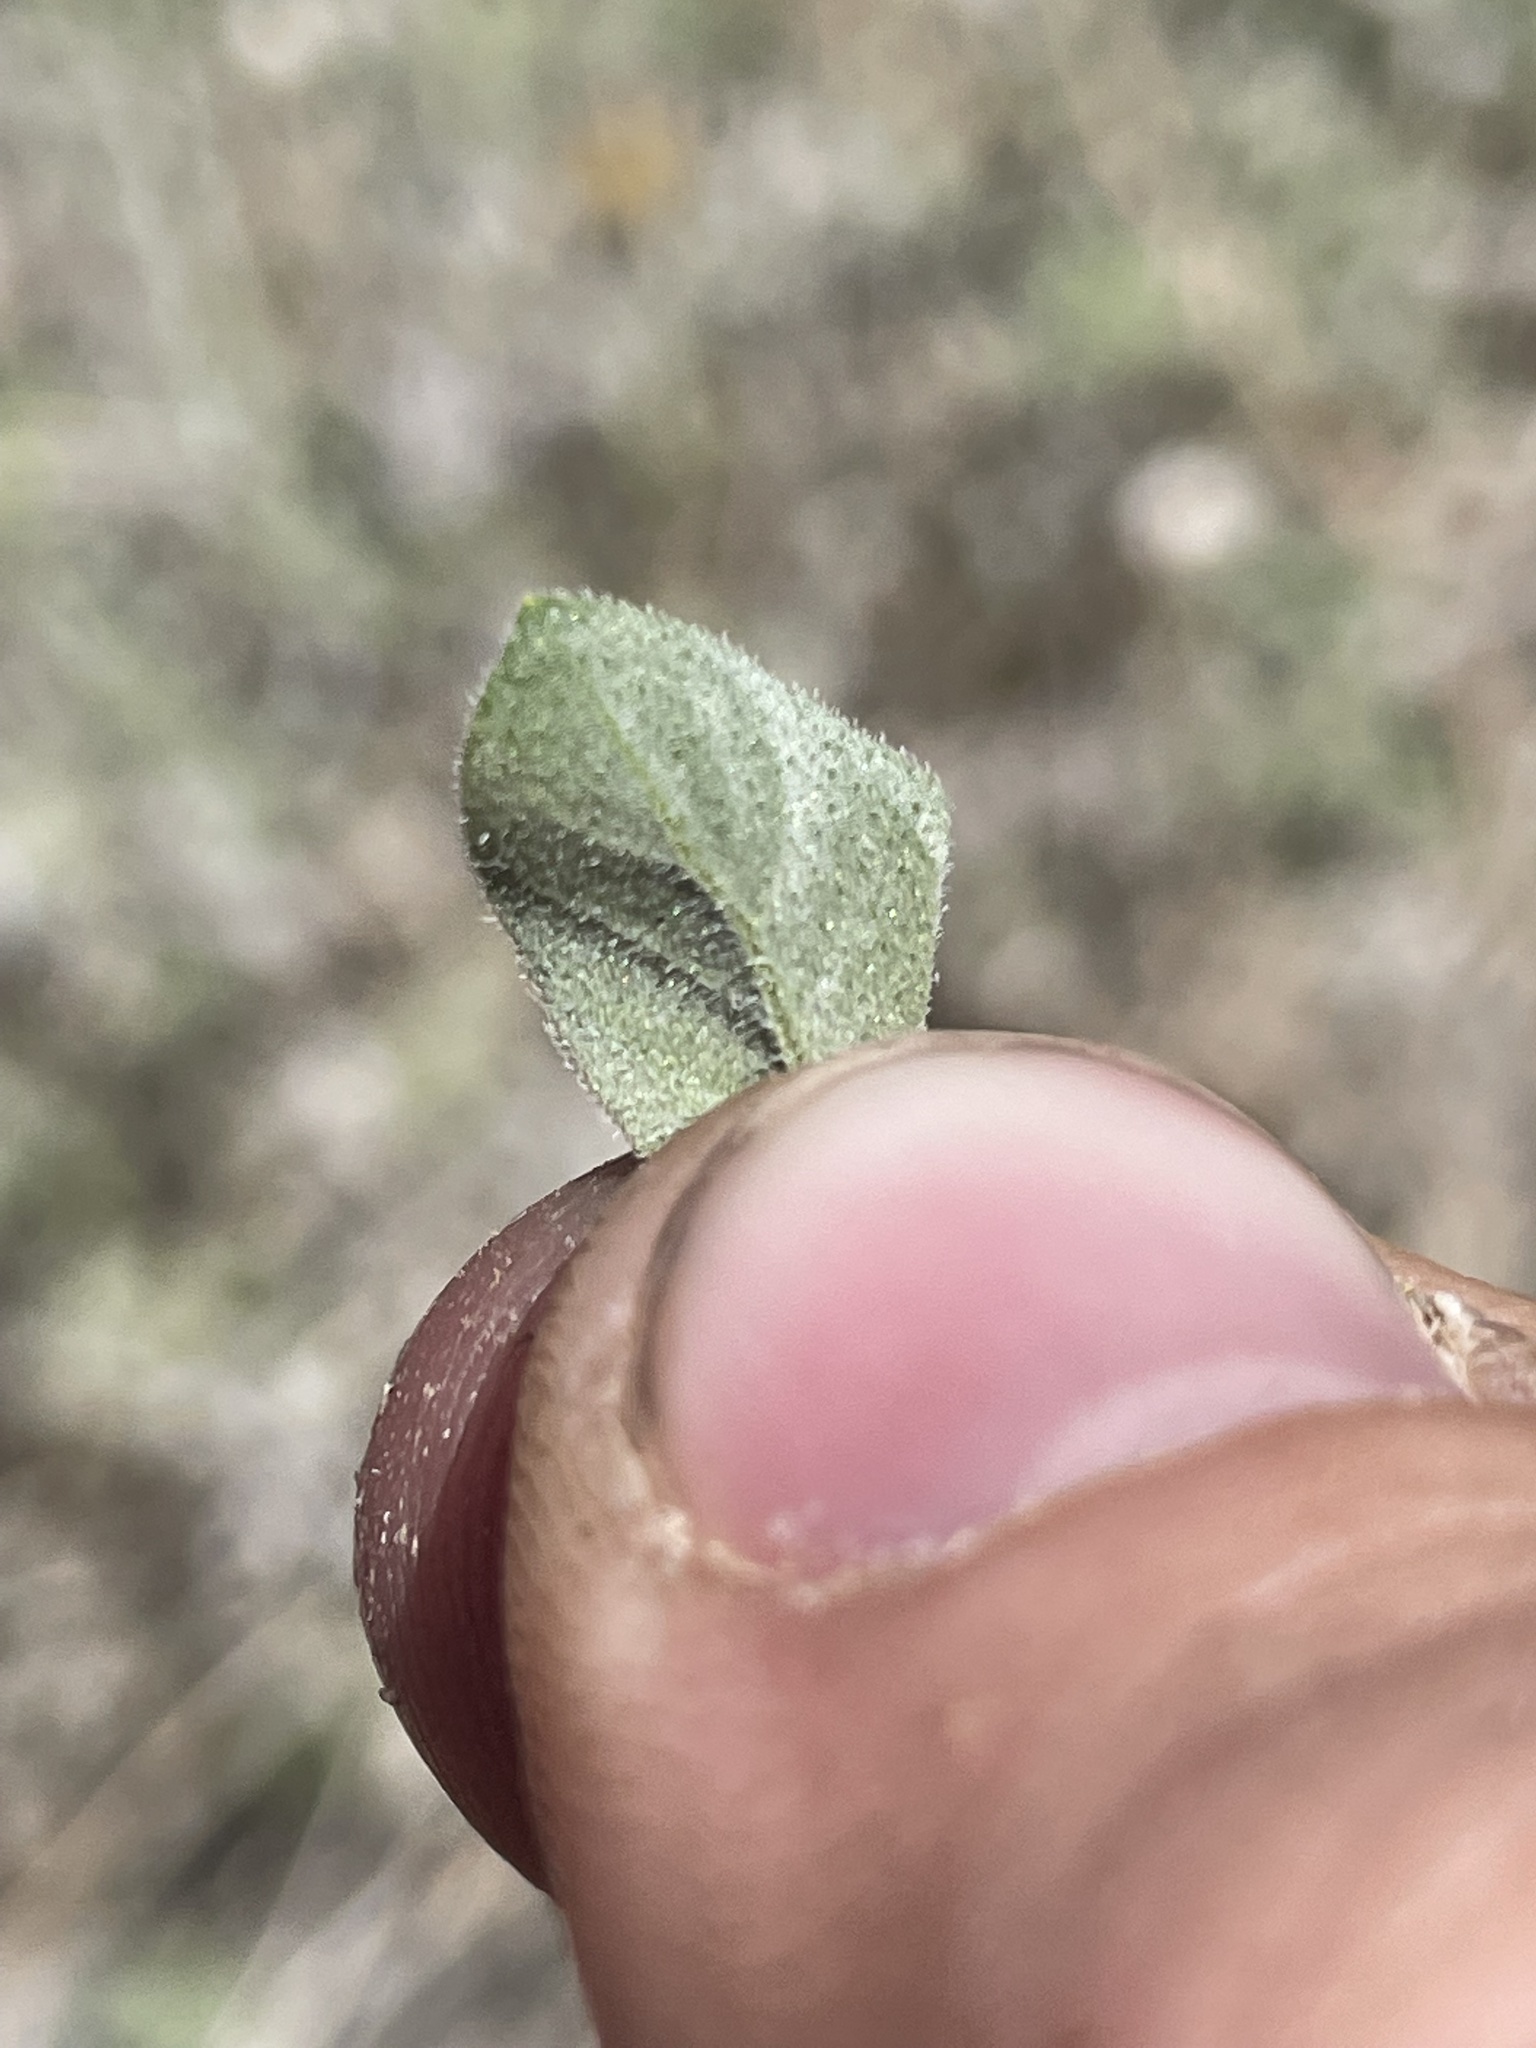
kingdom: Plantae
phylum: Tracheophyta
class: Magnoliopsida
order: Asterales
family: Asteraceae
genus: Encelia
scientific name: Encelia virginensis
